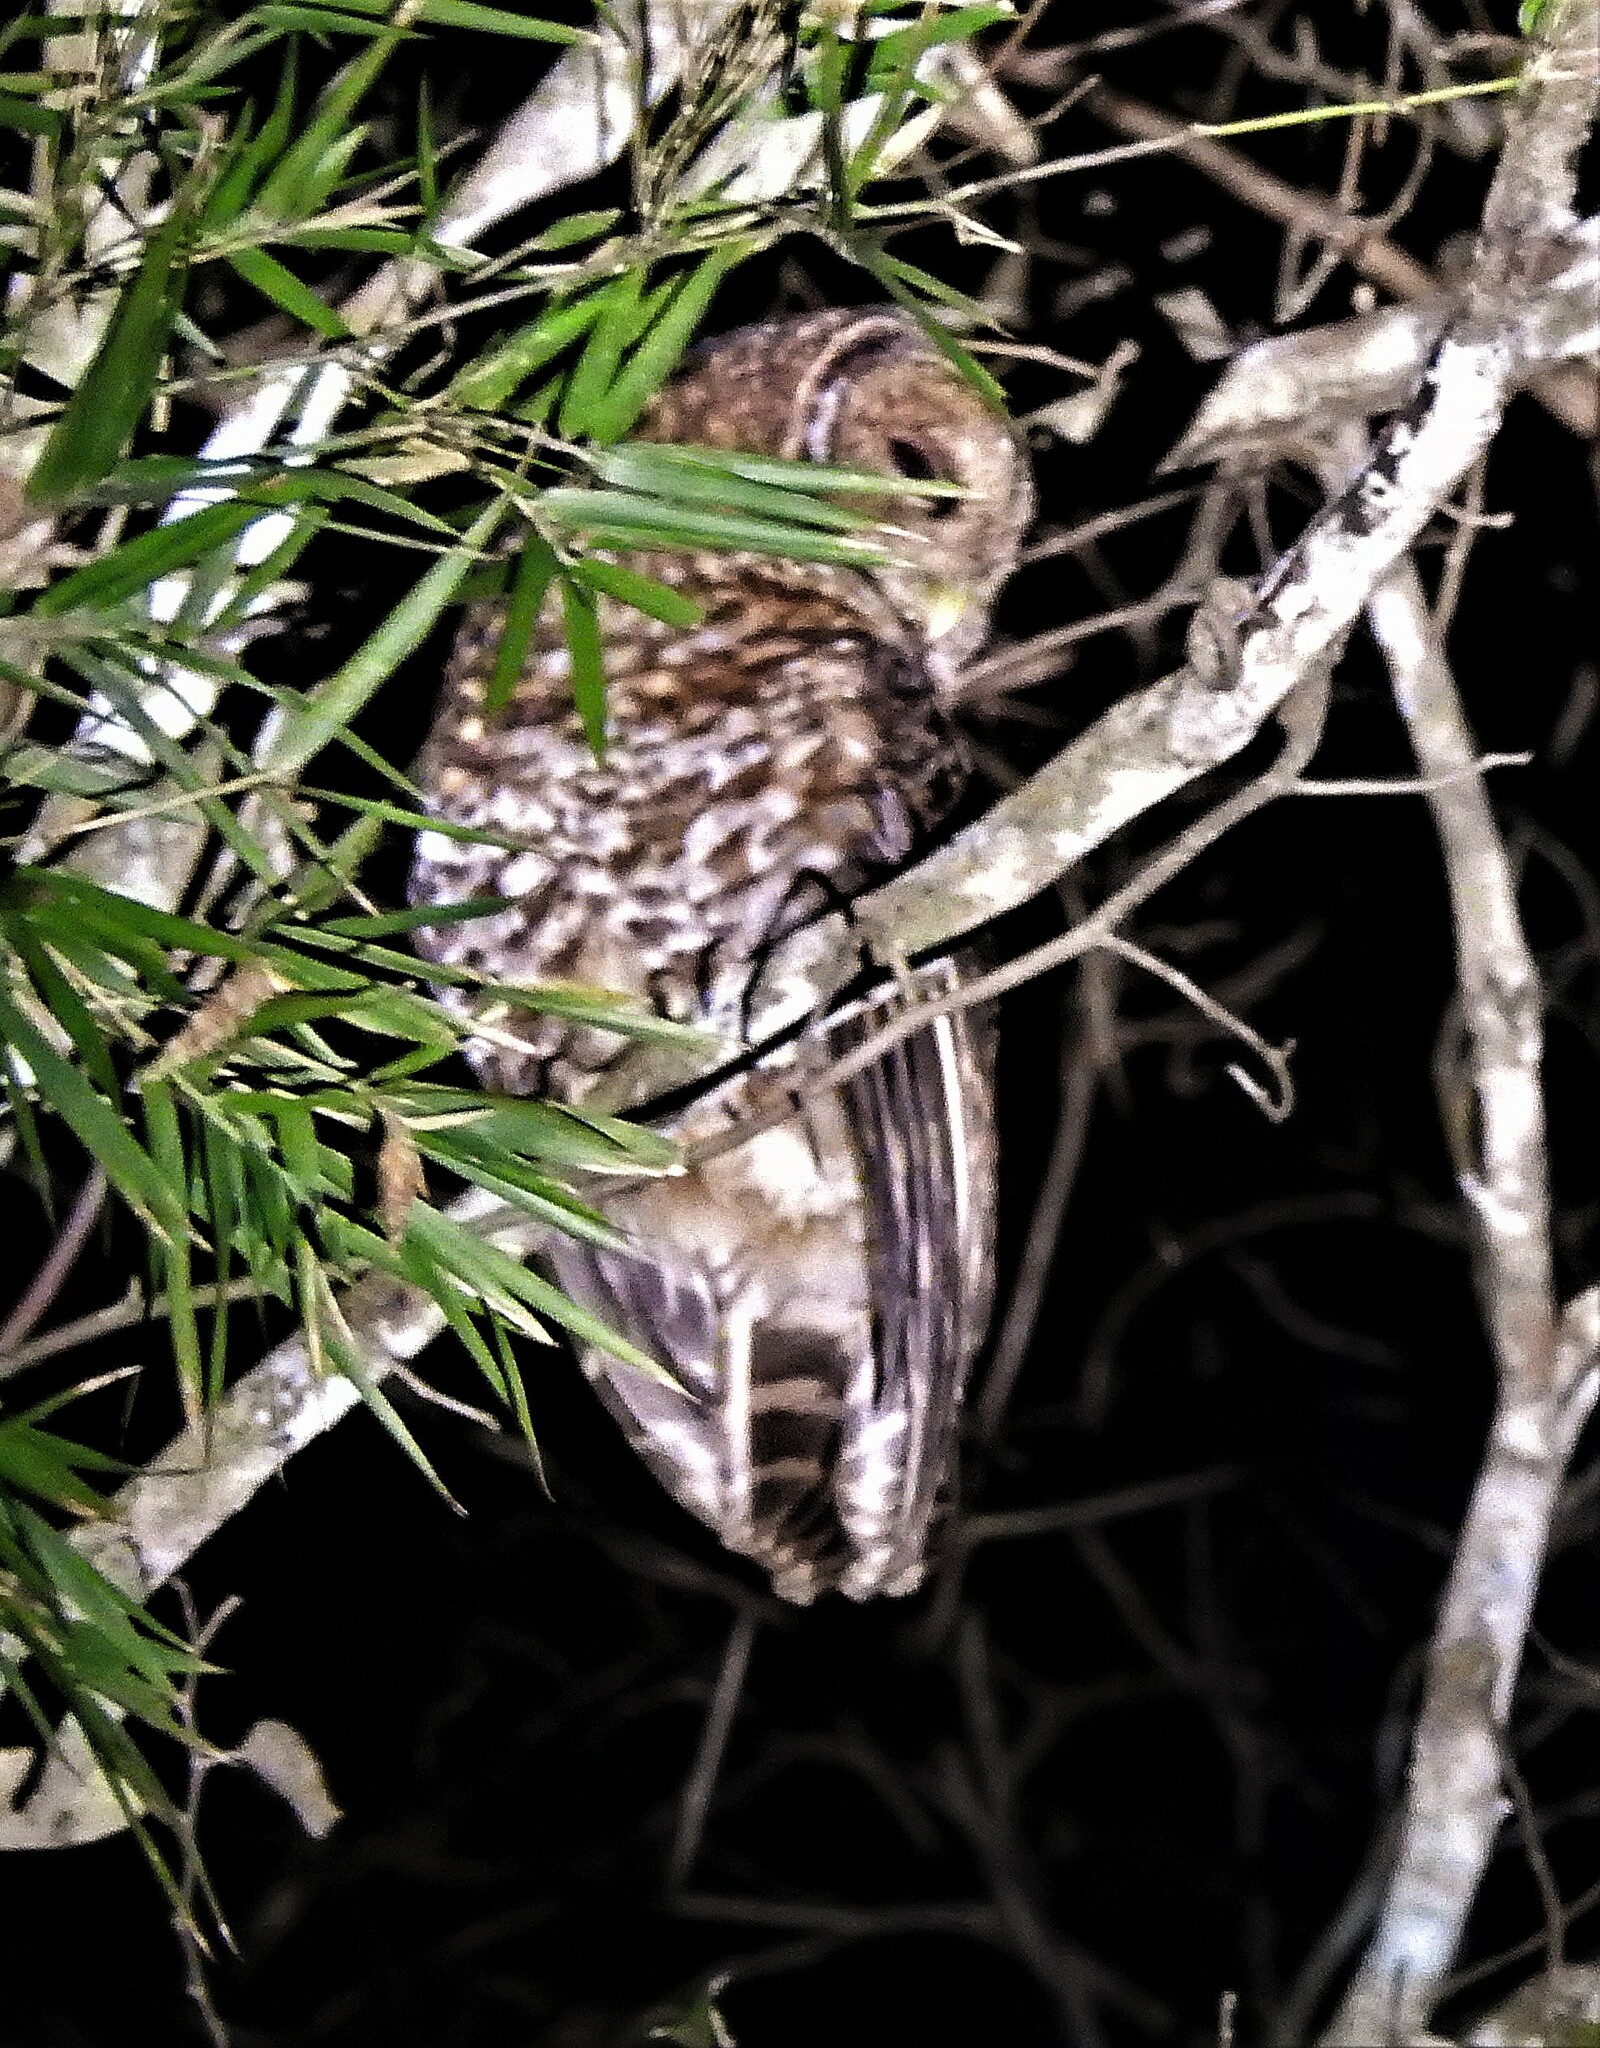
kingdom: Animalia
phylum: Chordata
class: Aves
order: Strigiformes
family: Strigidae
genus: Strix
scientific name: Strix hylophila
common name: Rusty-barred owl
